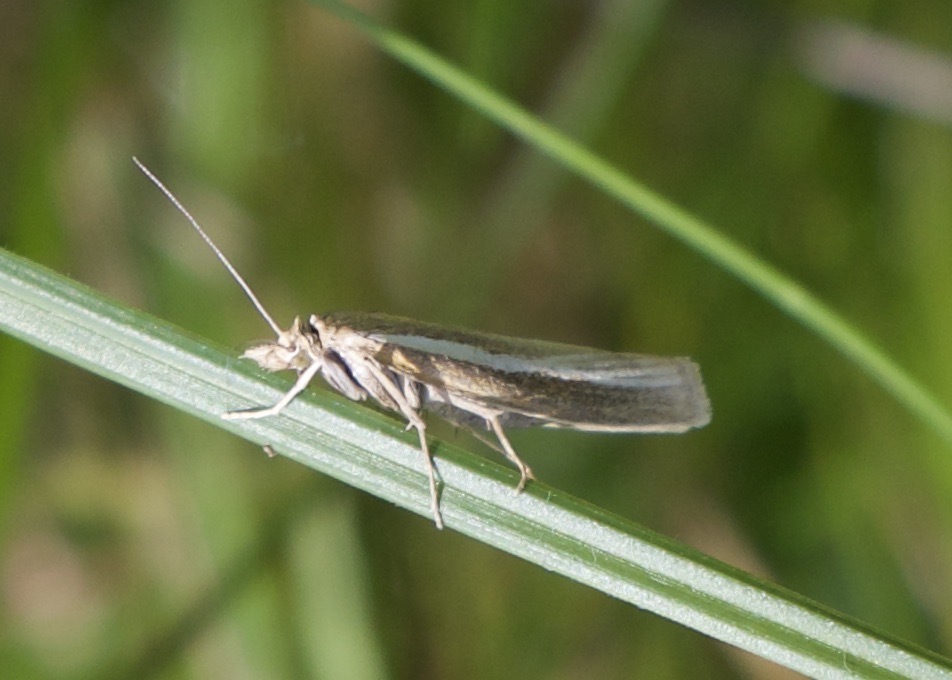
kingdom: Animalia
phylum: Arthropoda
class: Insecta
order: Lepidoptera
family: Crambidae
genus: Agriphila
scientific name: Agriphila tristellus
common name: Common grass-veneer
